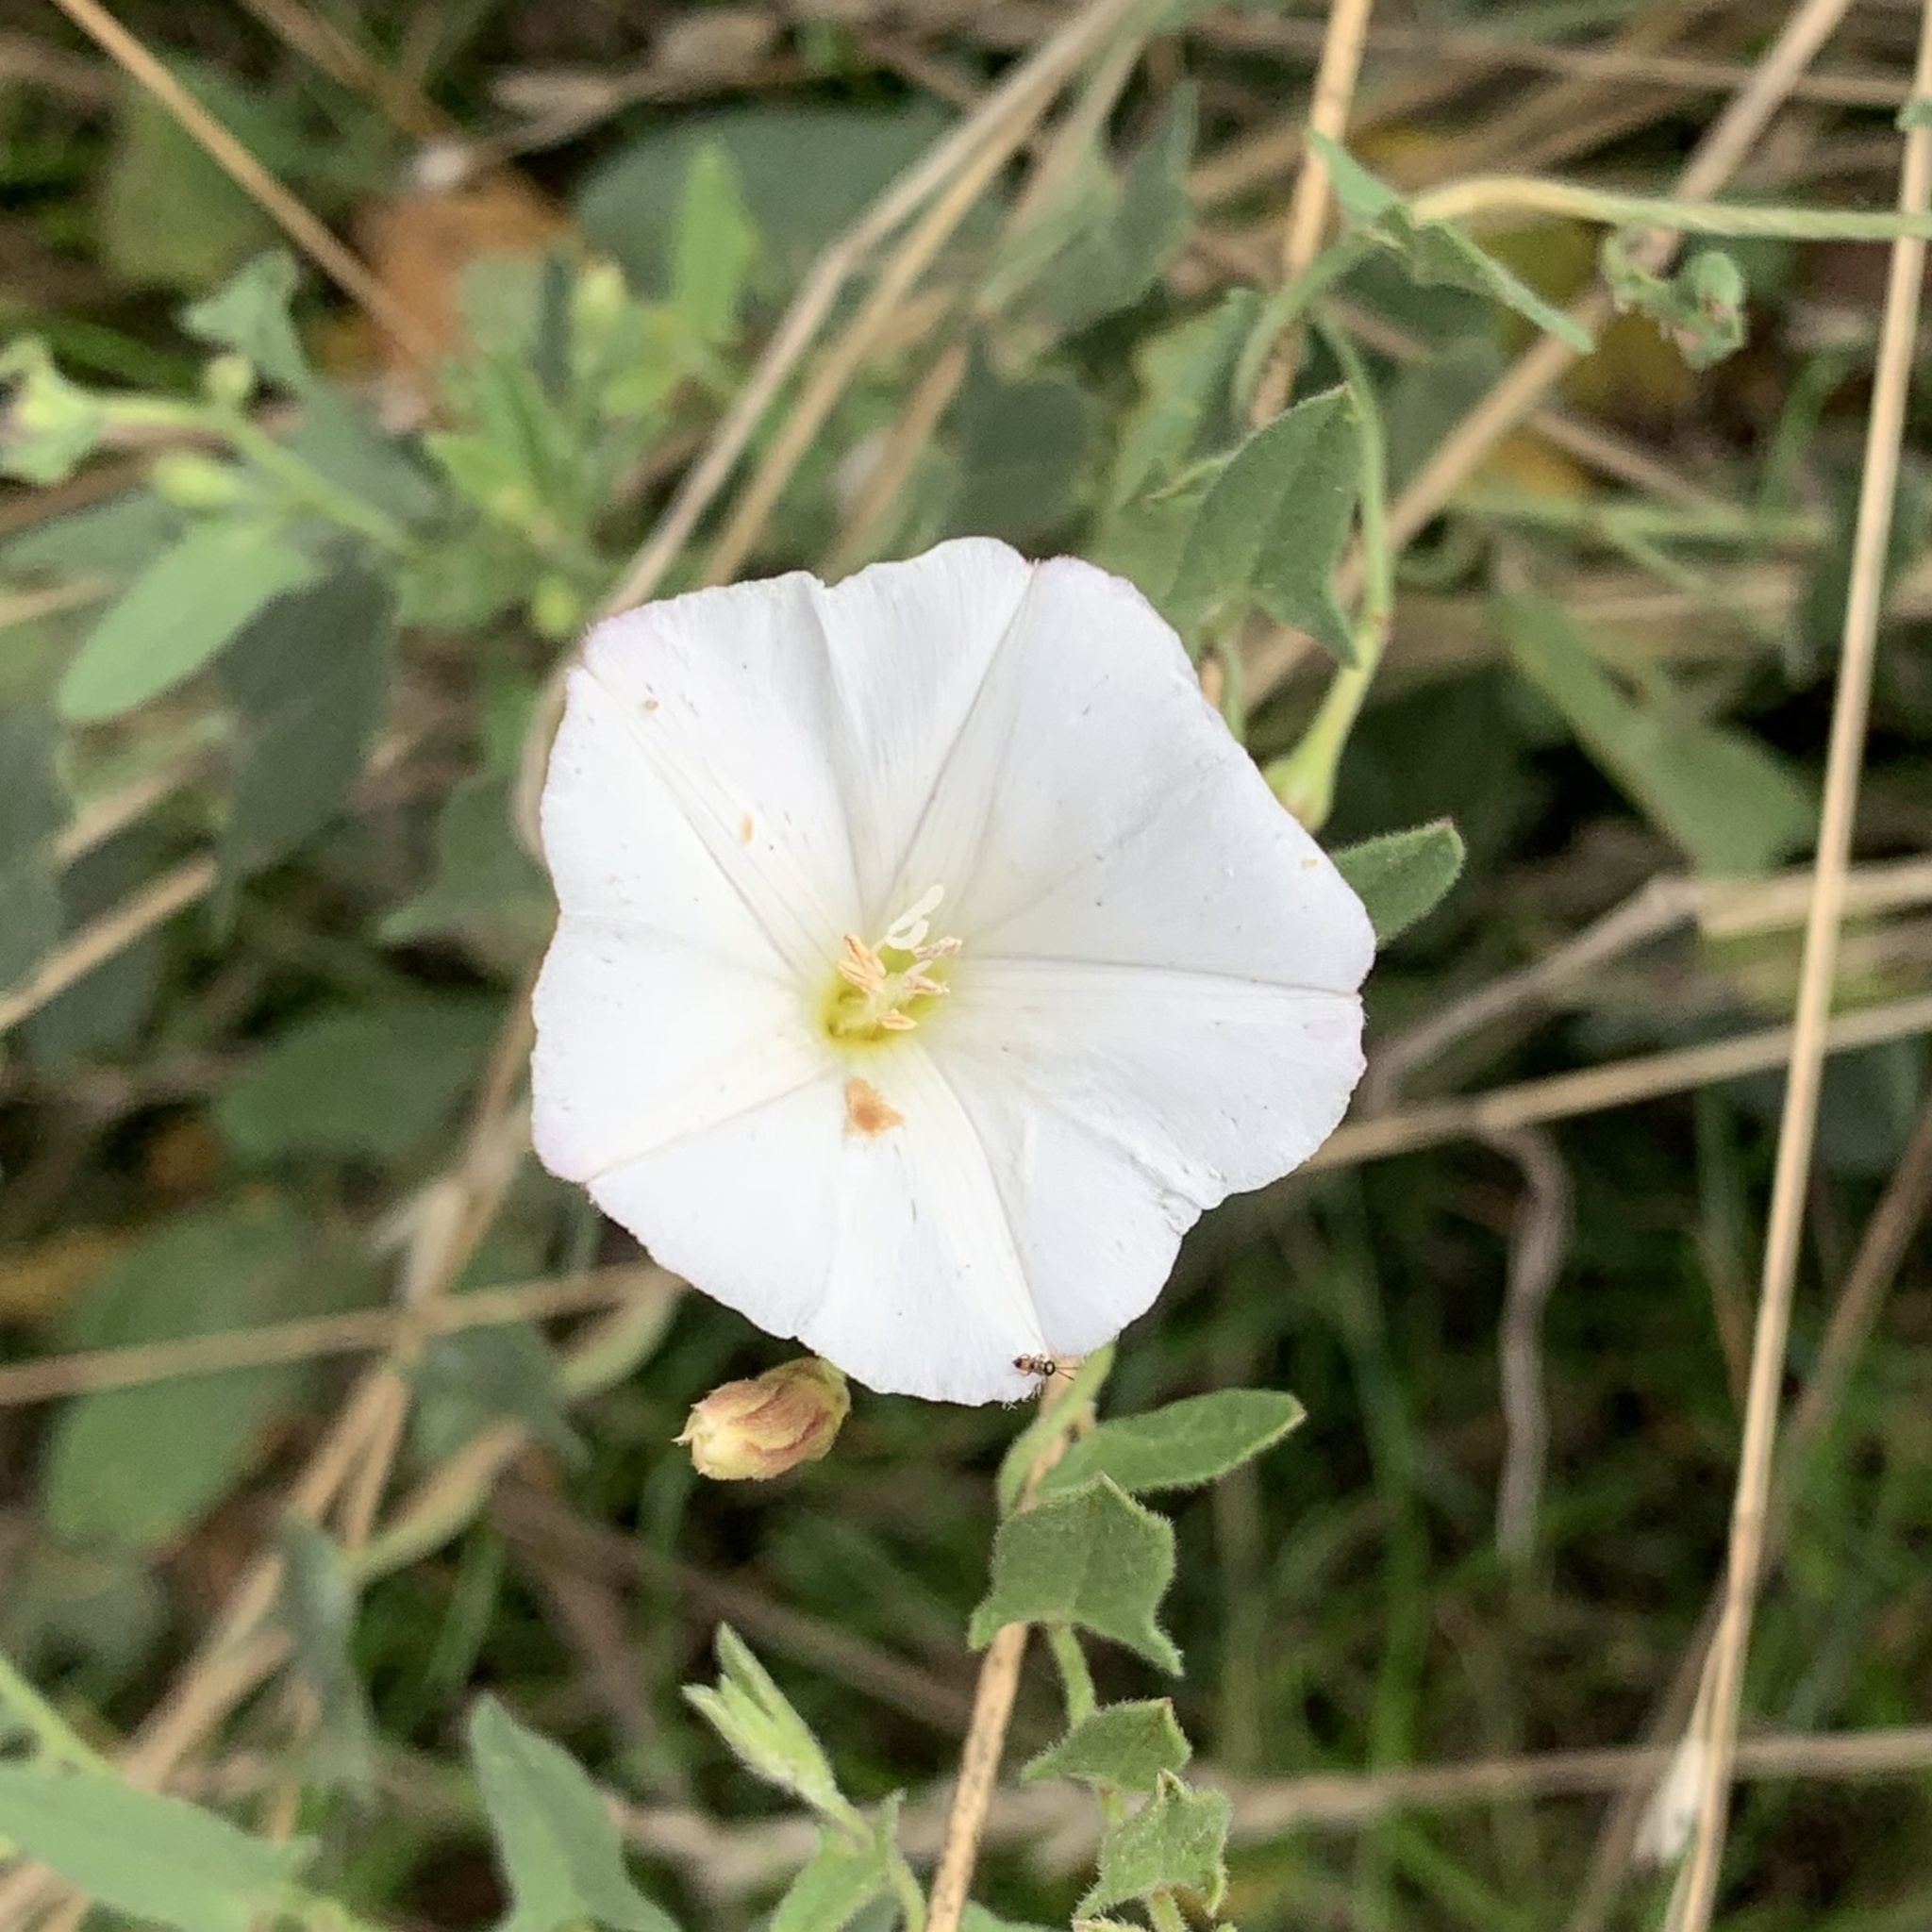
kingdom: Plantae
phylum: Tracheophyta
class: Magnoliopsida
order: Solanales
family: Convolvulaceae
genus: Convolvulus
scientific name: Convolvulus arvensis
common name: Field bindweed
